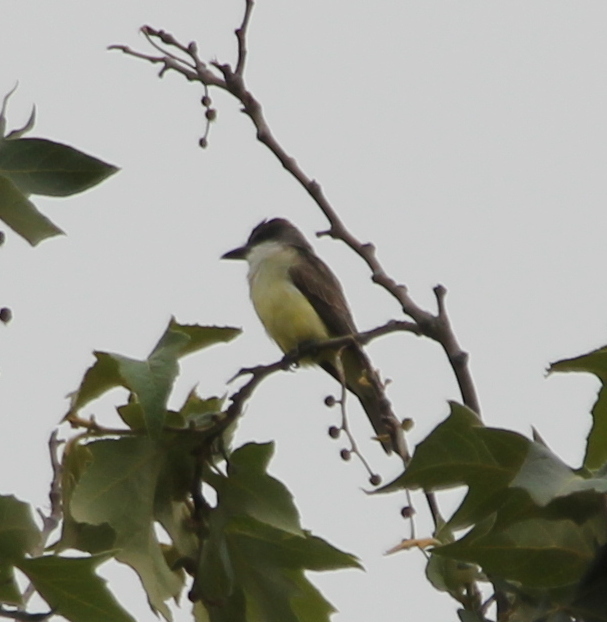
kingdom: Animalia
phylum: Chordata
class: Aves
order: Passeriformes
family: Tyrannidae
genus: Tyrannus
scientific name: Tyrannus crassirostris
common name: Thick-billed kingbird
